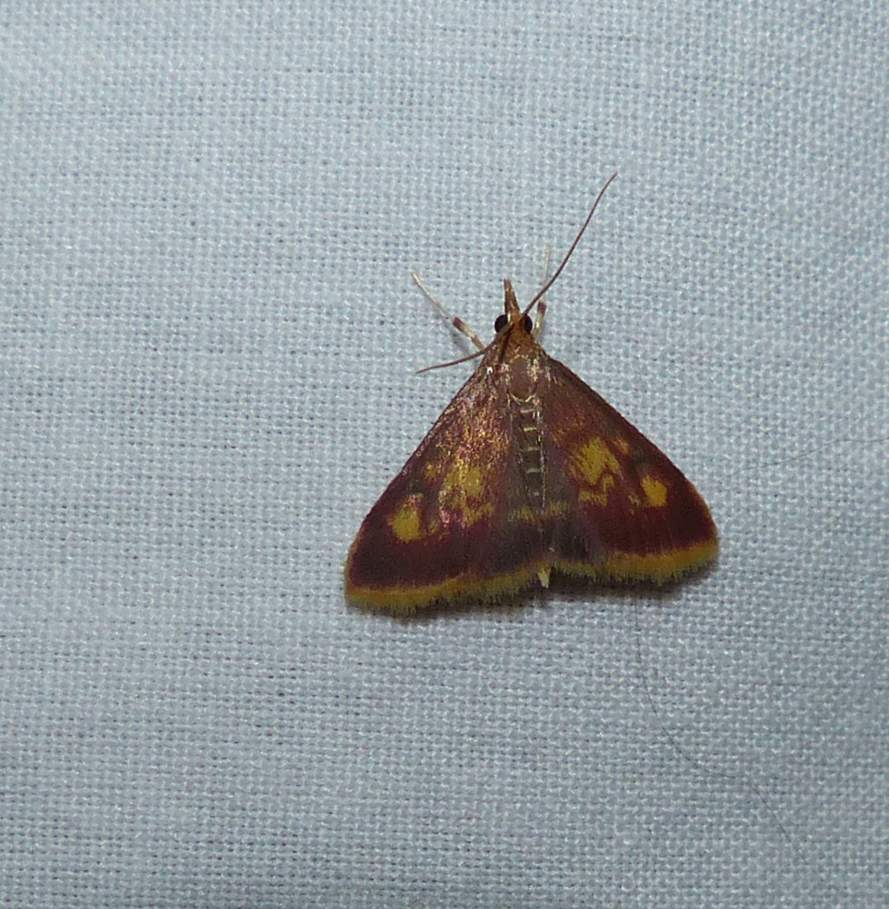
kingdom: Animalia
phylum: Arthropoda
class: Insecta
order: Lepidoptera
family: Crambidae
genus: Pyrausta
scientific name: Pyrausta acrionalis
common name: Mint-loving pyrausta moth
